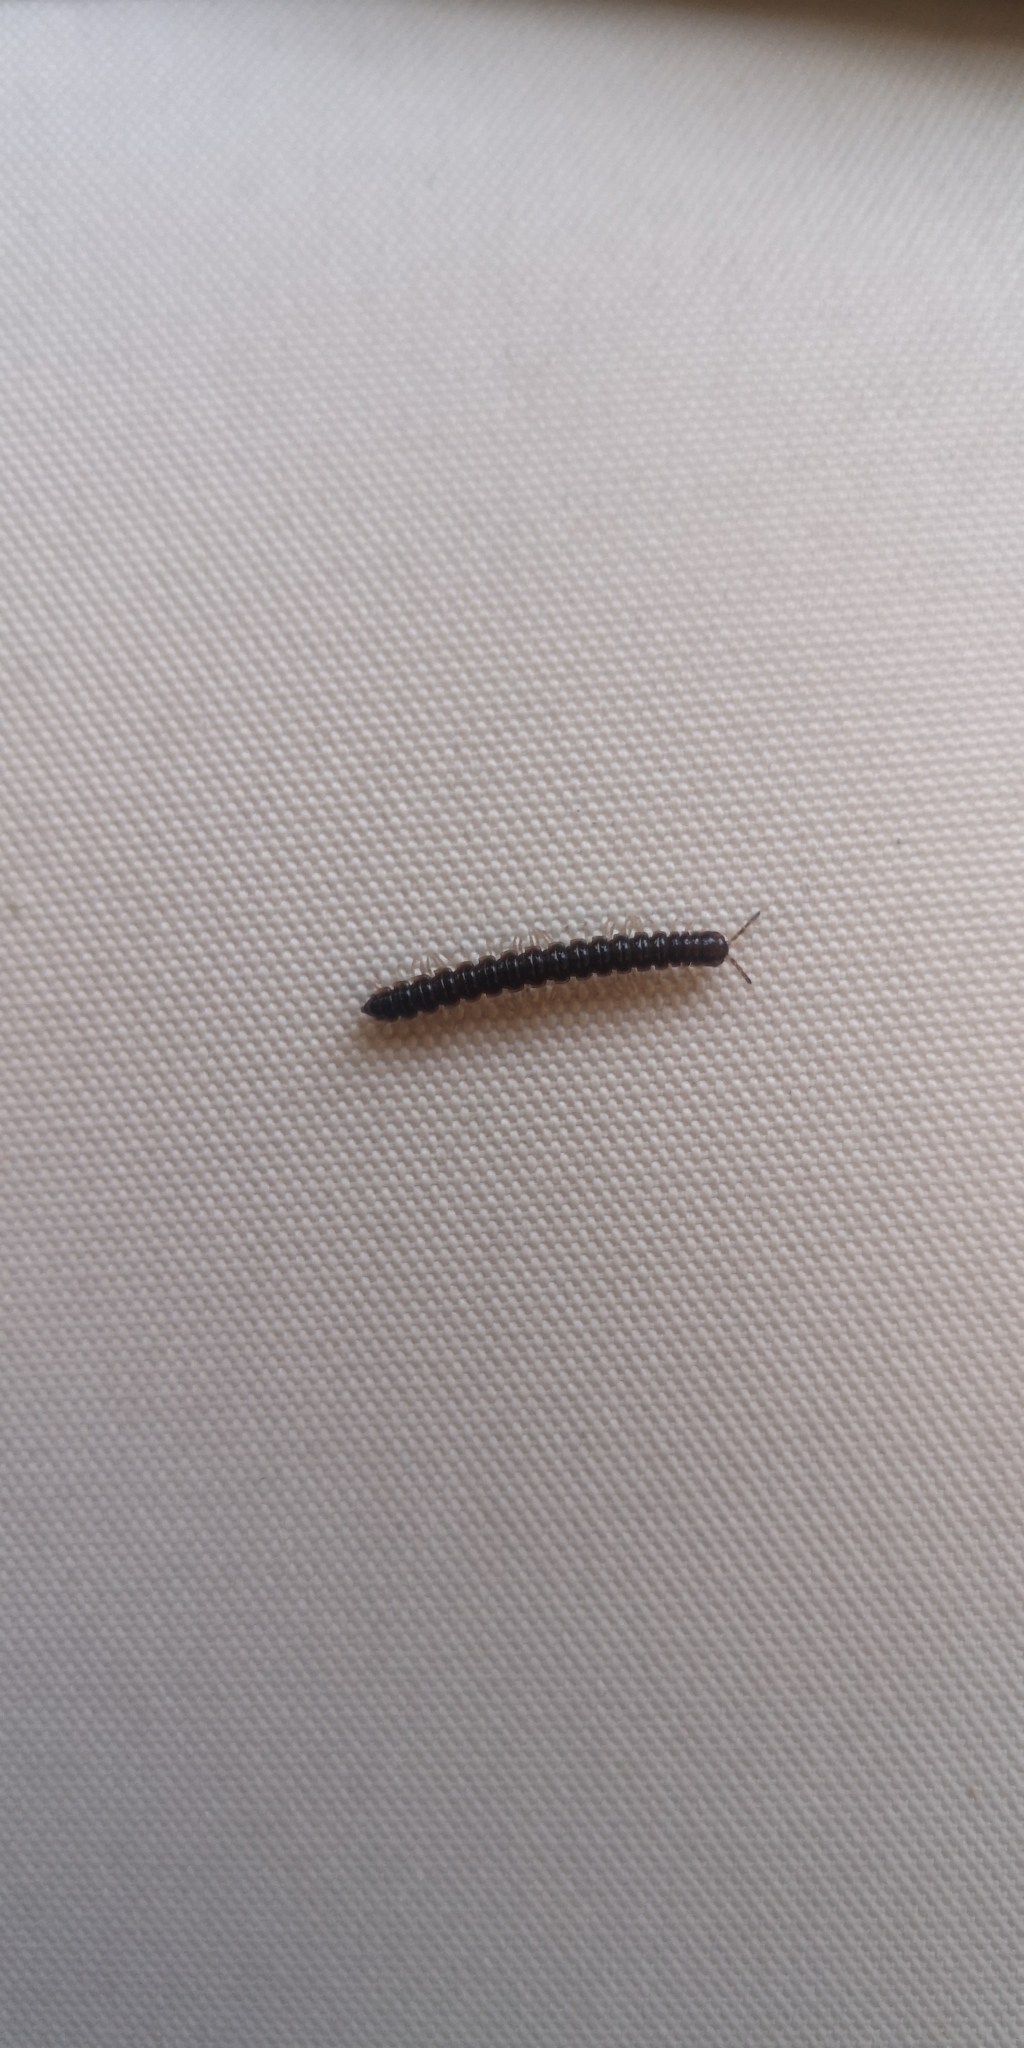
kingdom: Animalia
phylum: Arthropoda
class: Diplopoda
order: Polydesmida
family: Paradoxosomatidae
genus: Oxidus
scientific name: Oxidus gracilis
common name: Greenhouse millipede
